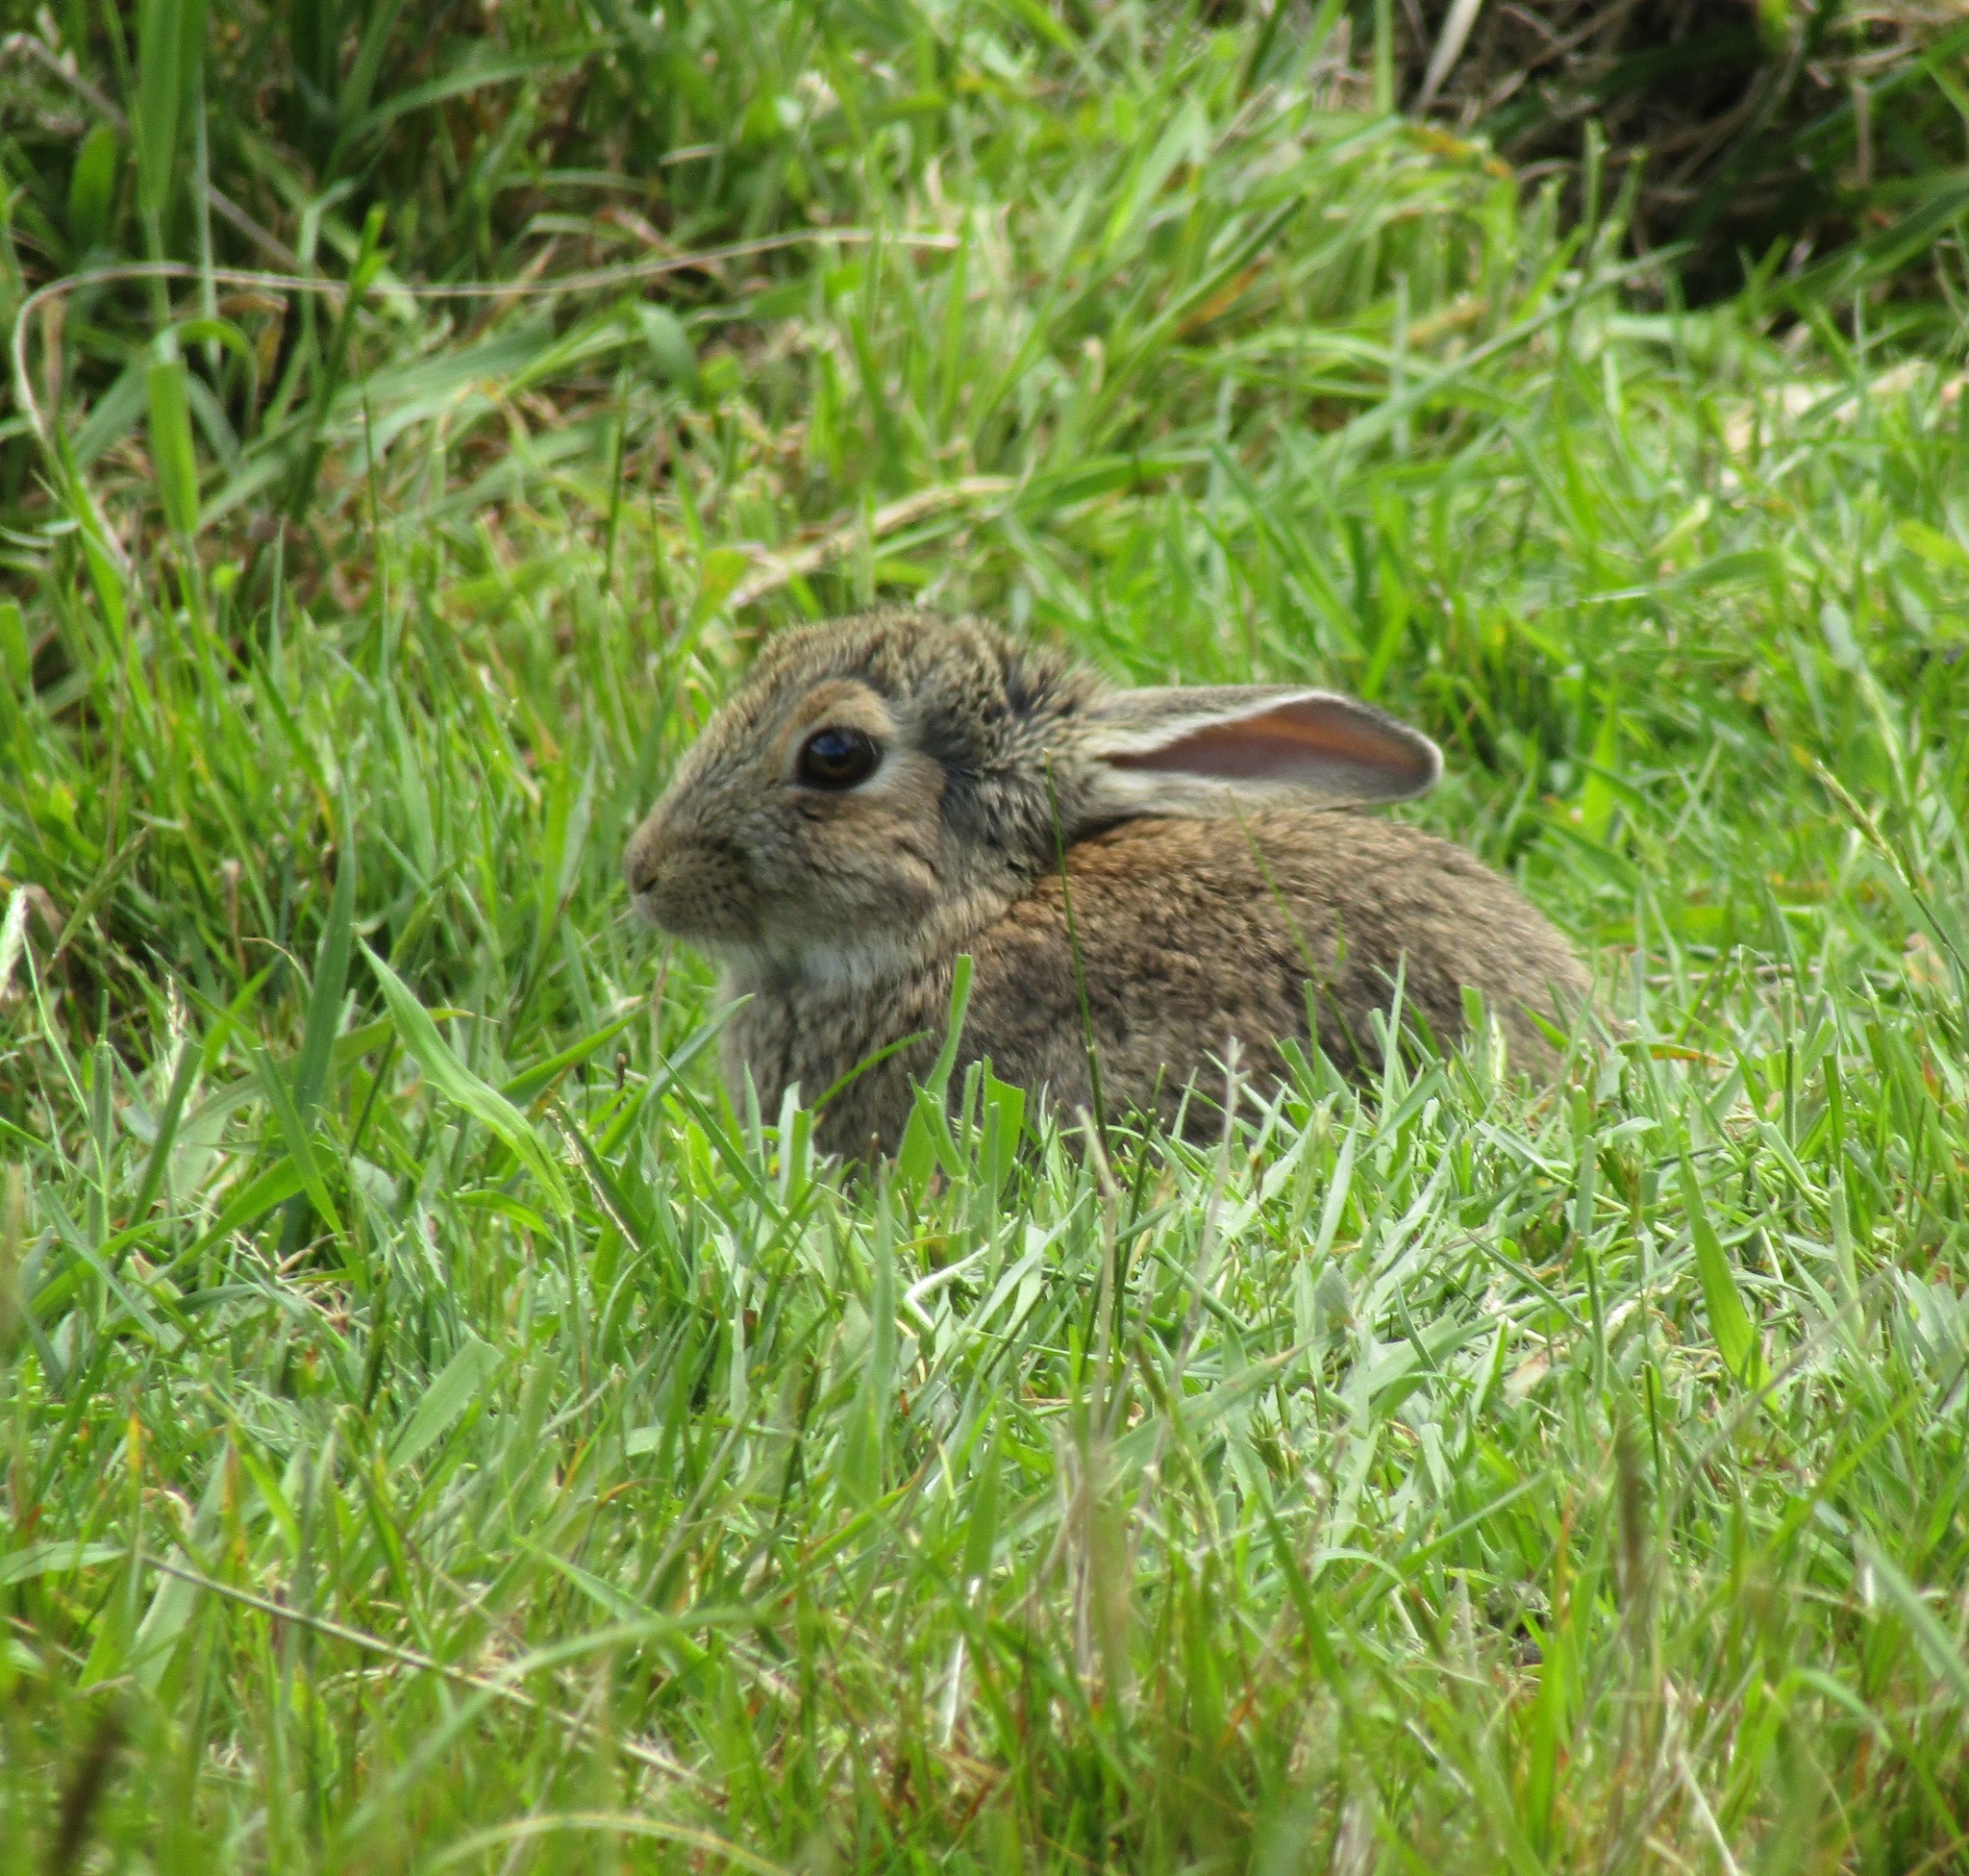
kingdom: Animalia
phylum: Chordata
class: Mammalia
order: Lagomorpha
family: Leporidae
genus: Oryctolagus
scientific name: Oryctolagus cuniculus
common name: European rabbit
